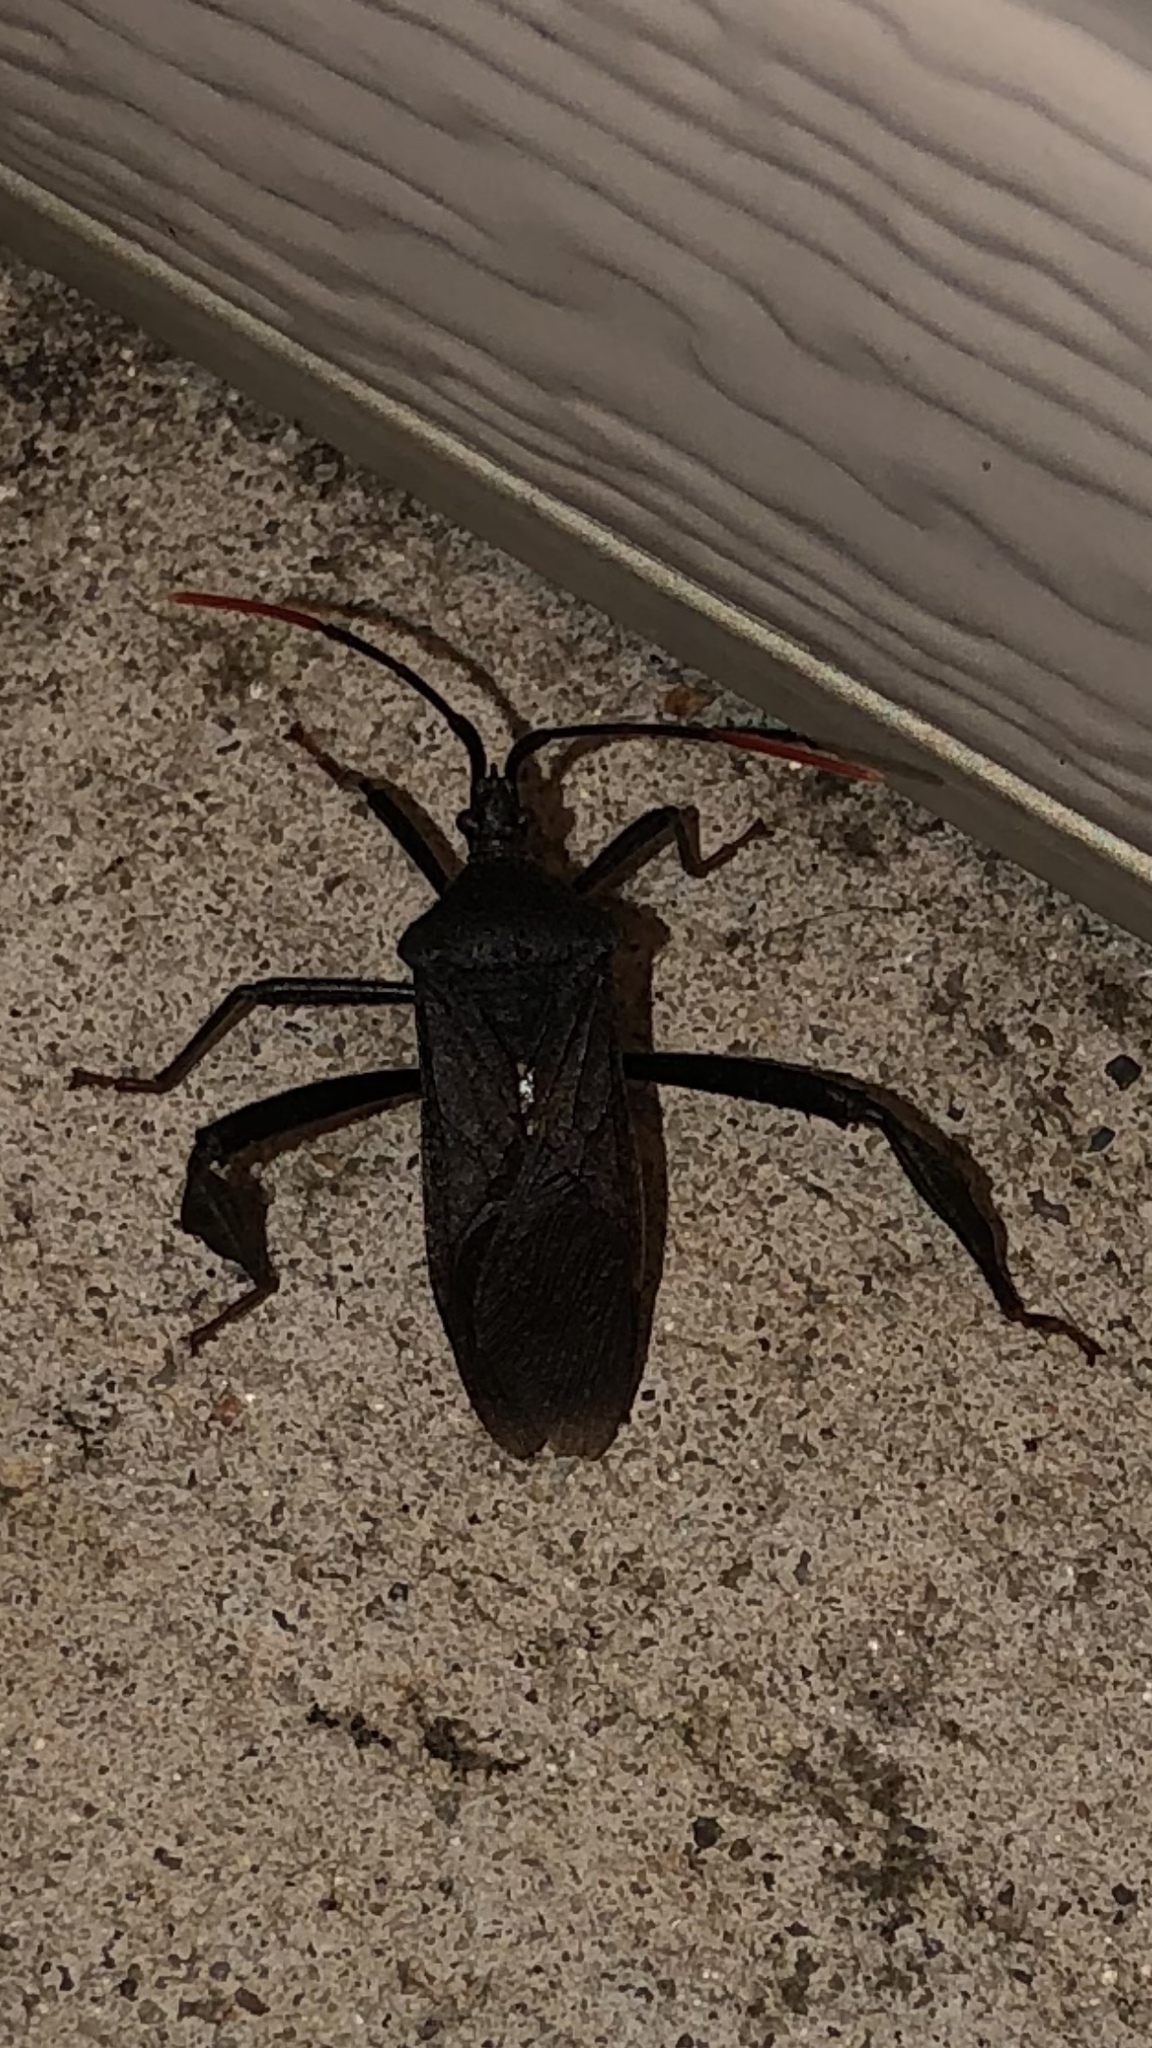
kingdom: Animalia
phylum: Arthropoda
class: Insecta
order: Hemiptera
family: Coreidae
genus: Acanthocephala
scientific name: Acanthocephala terminalis
